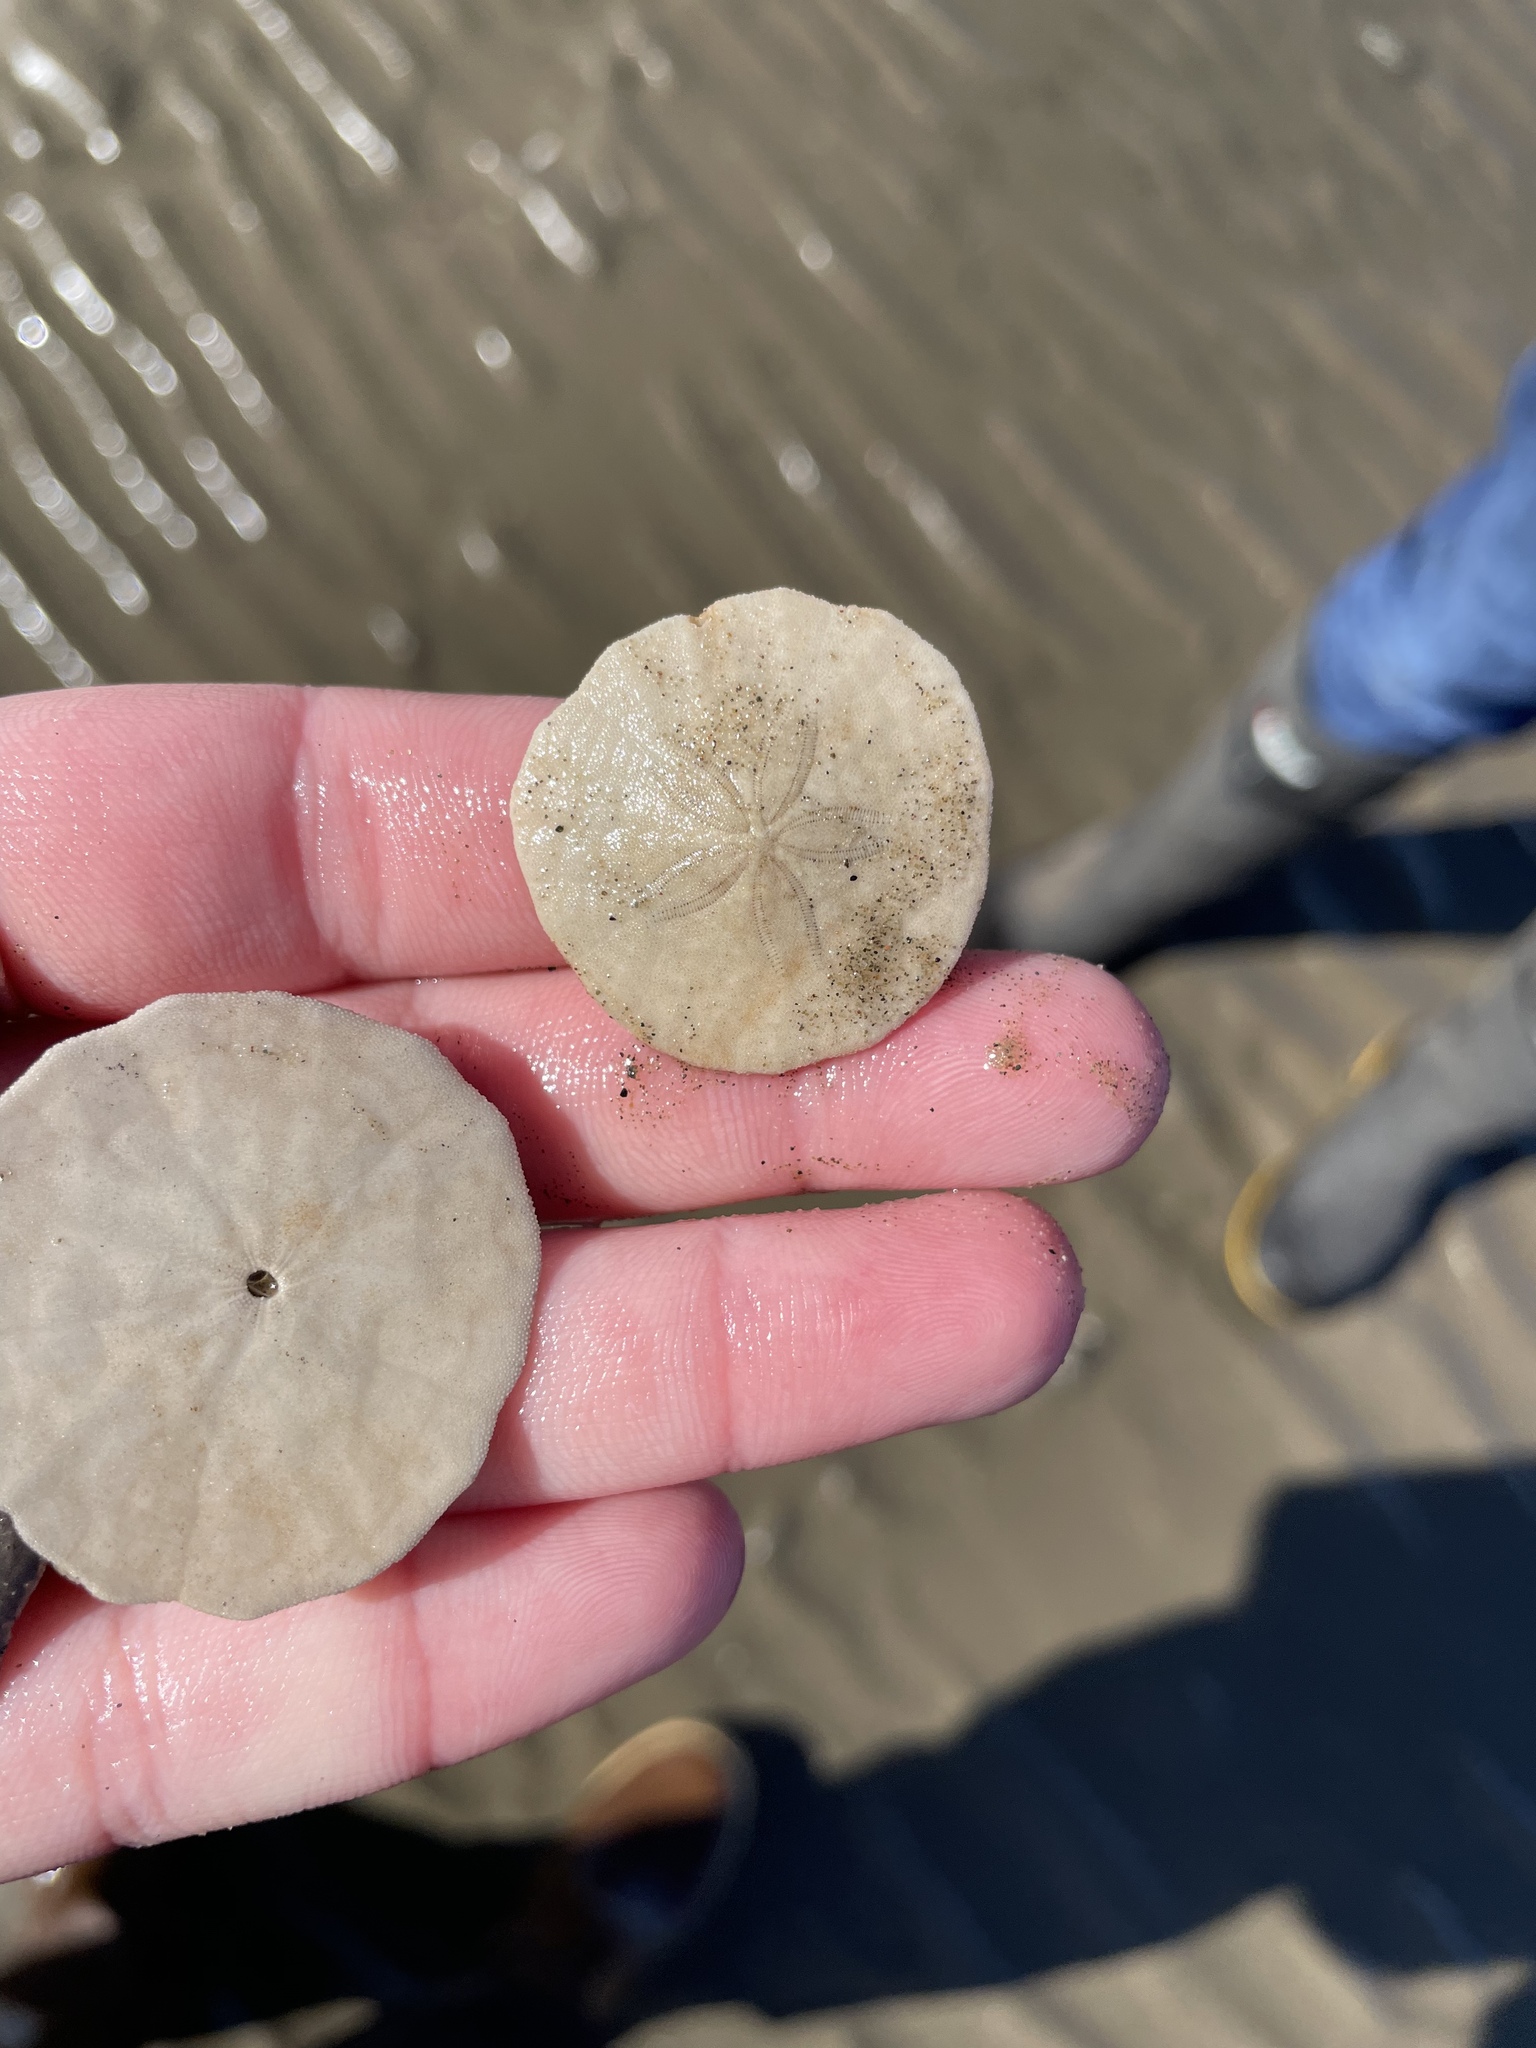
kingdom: Animalia
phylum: Echinodermata
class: Echinoidea
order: Echinolampadacea
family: Echinarachniidae
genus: Echinarachnius
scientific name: Echinarachnius parma
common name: Common sand dollar
